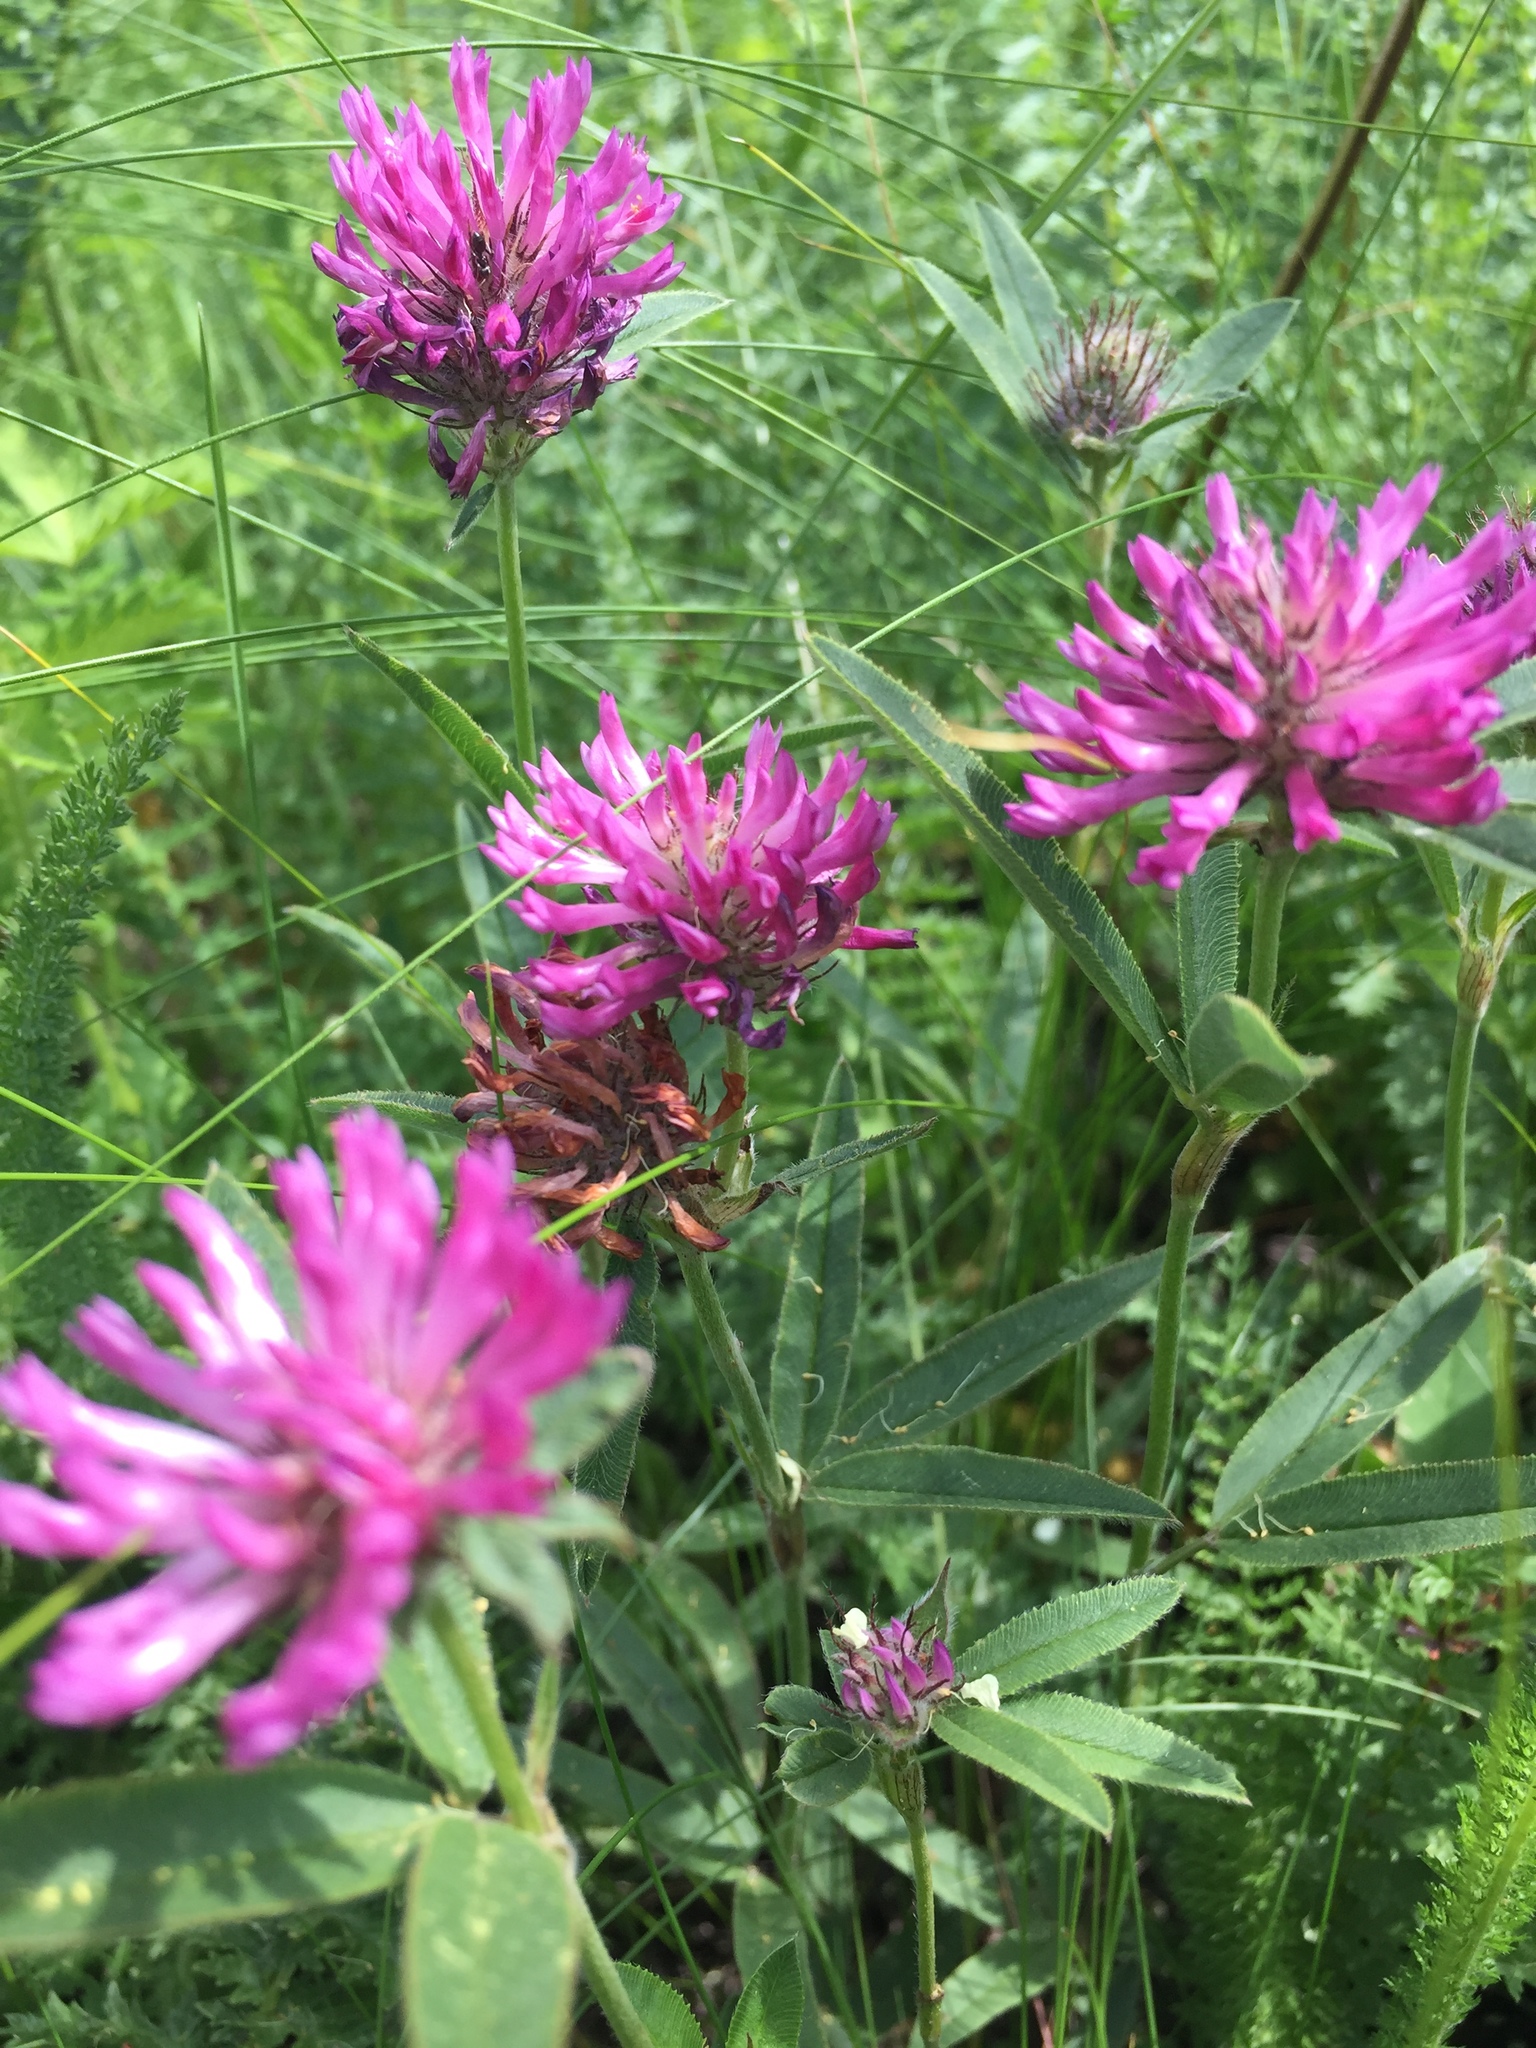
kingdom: Plantae
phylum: Tracheophyta
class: Magnoliopsida
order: Fabales
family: Fabaceae
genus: Trifolium
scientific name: Trifolium alpestre
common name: Owl-head clover
